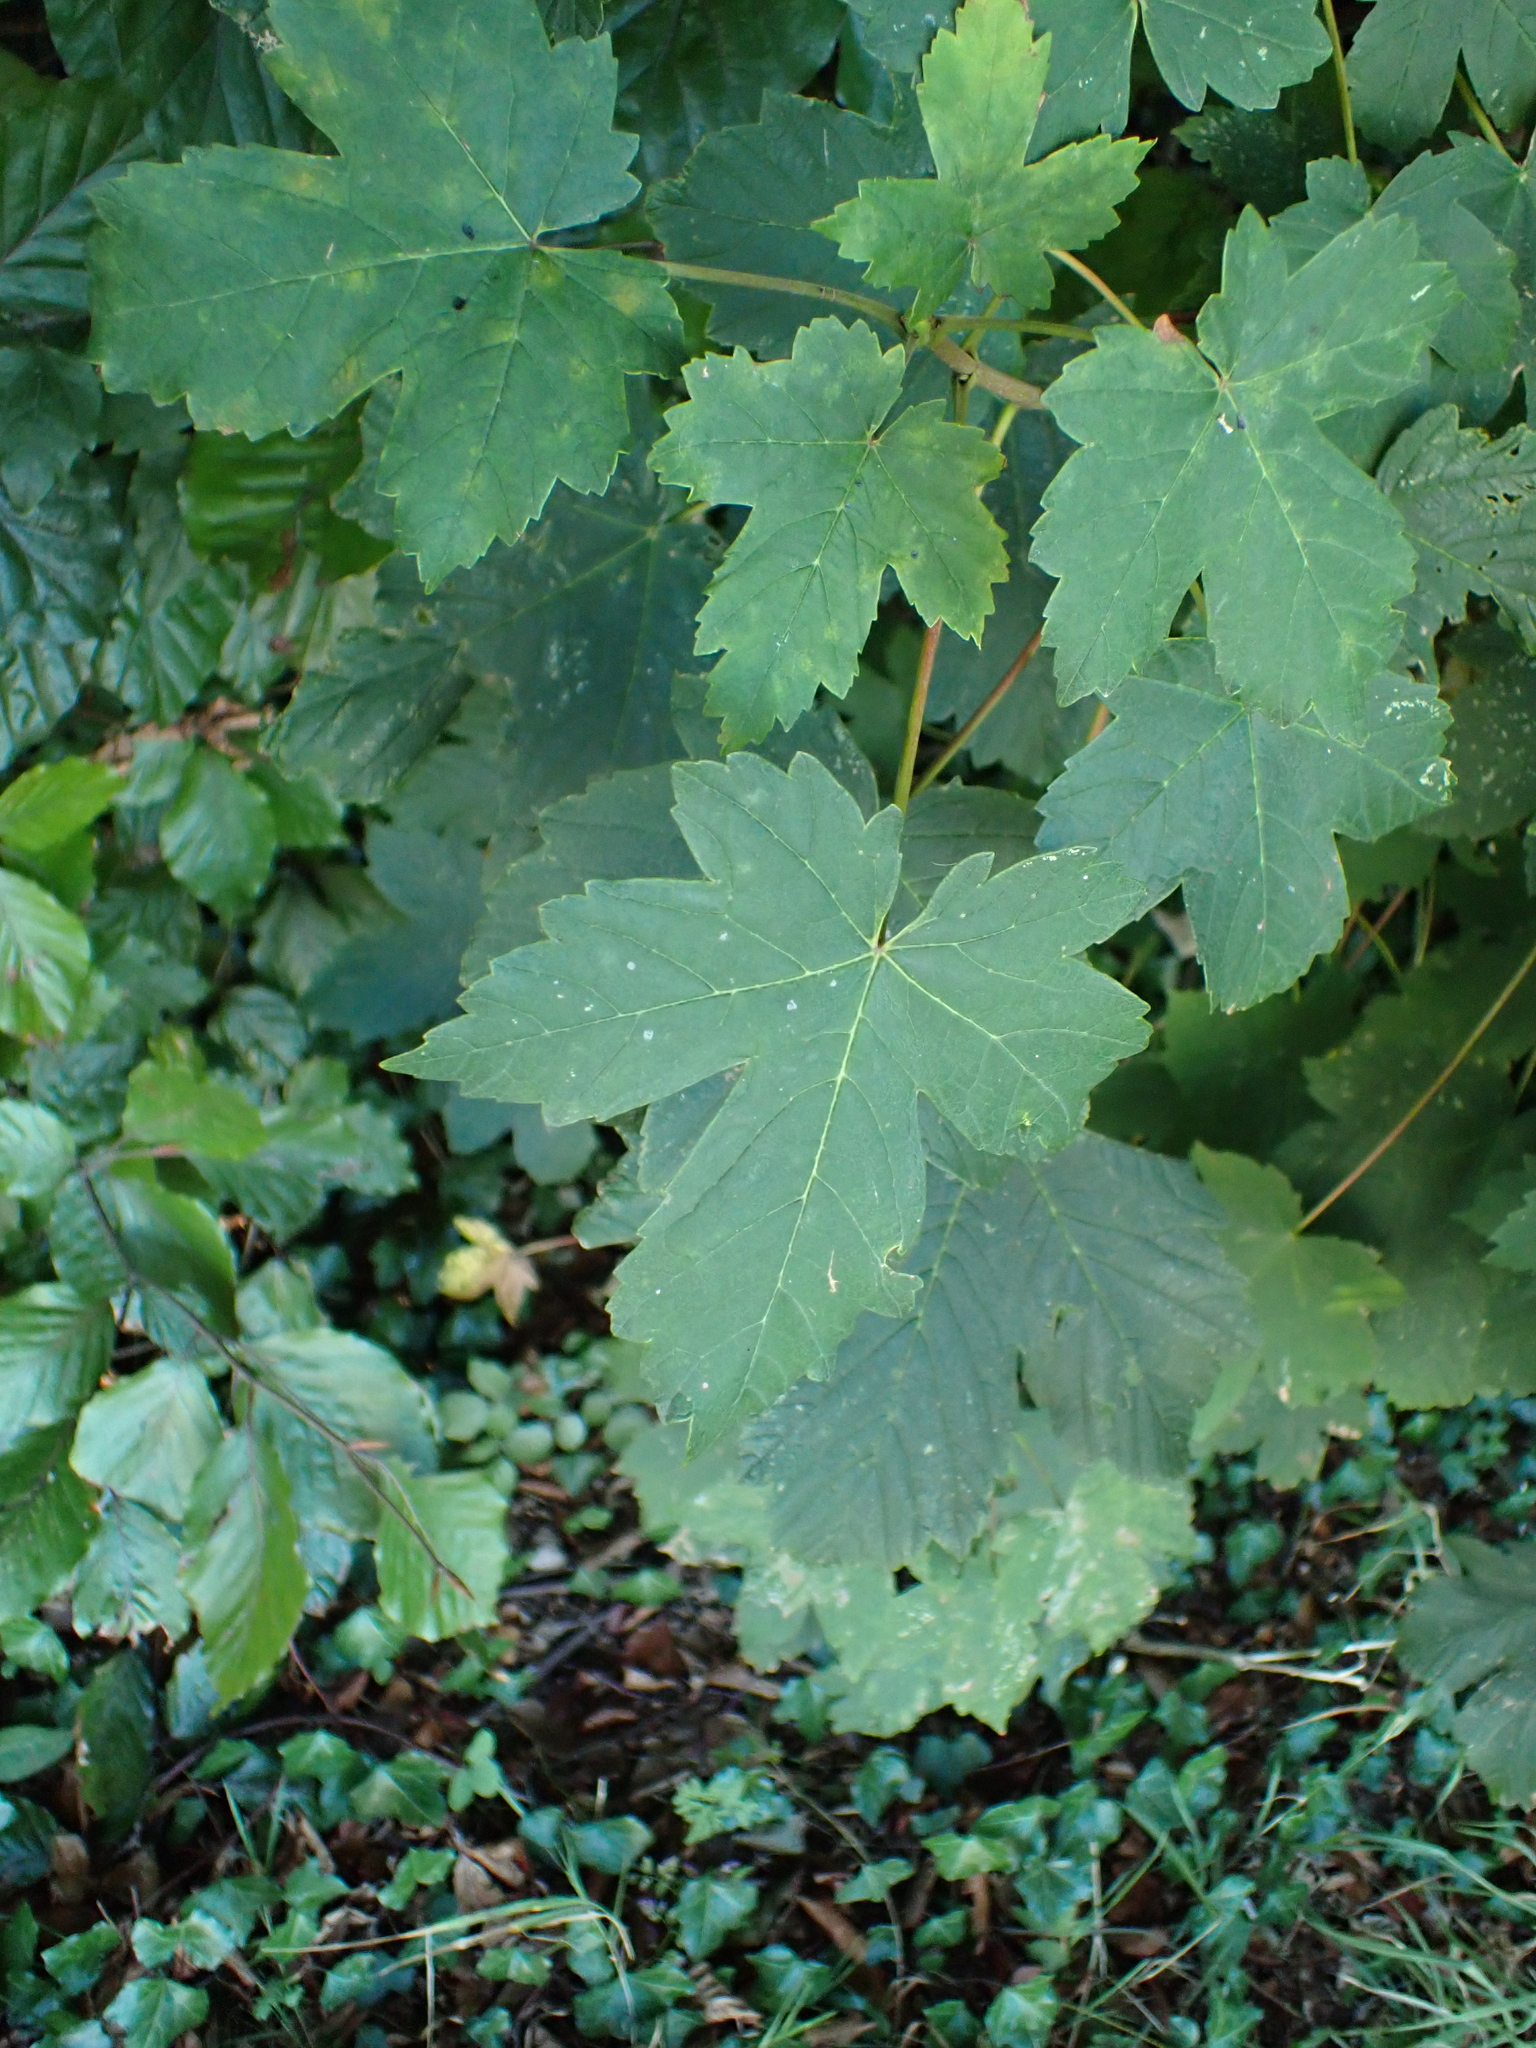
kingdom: Plantae
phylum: Tracheophyta
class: Magnoliopsida
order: Sapindales
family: Sapindaceae
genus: Acer
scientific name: Acer pseudoplatanus
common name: Sycamore
